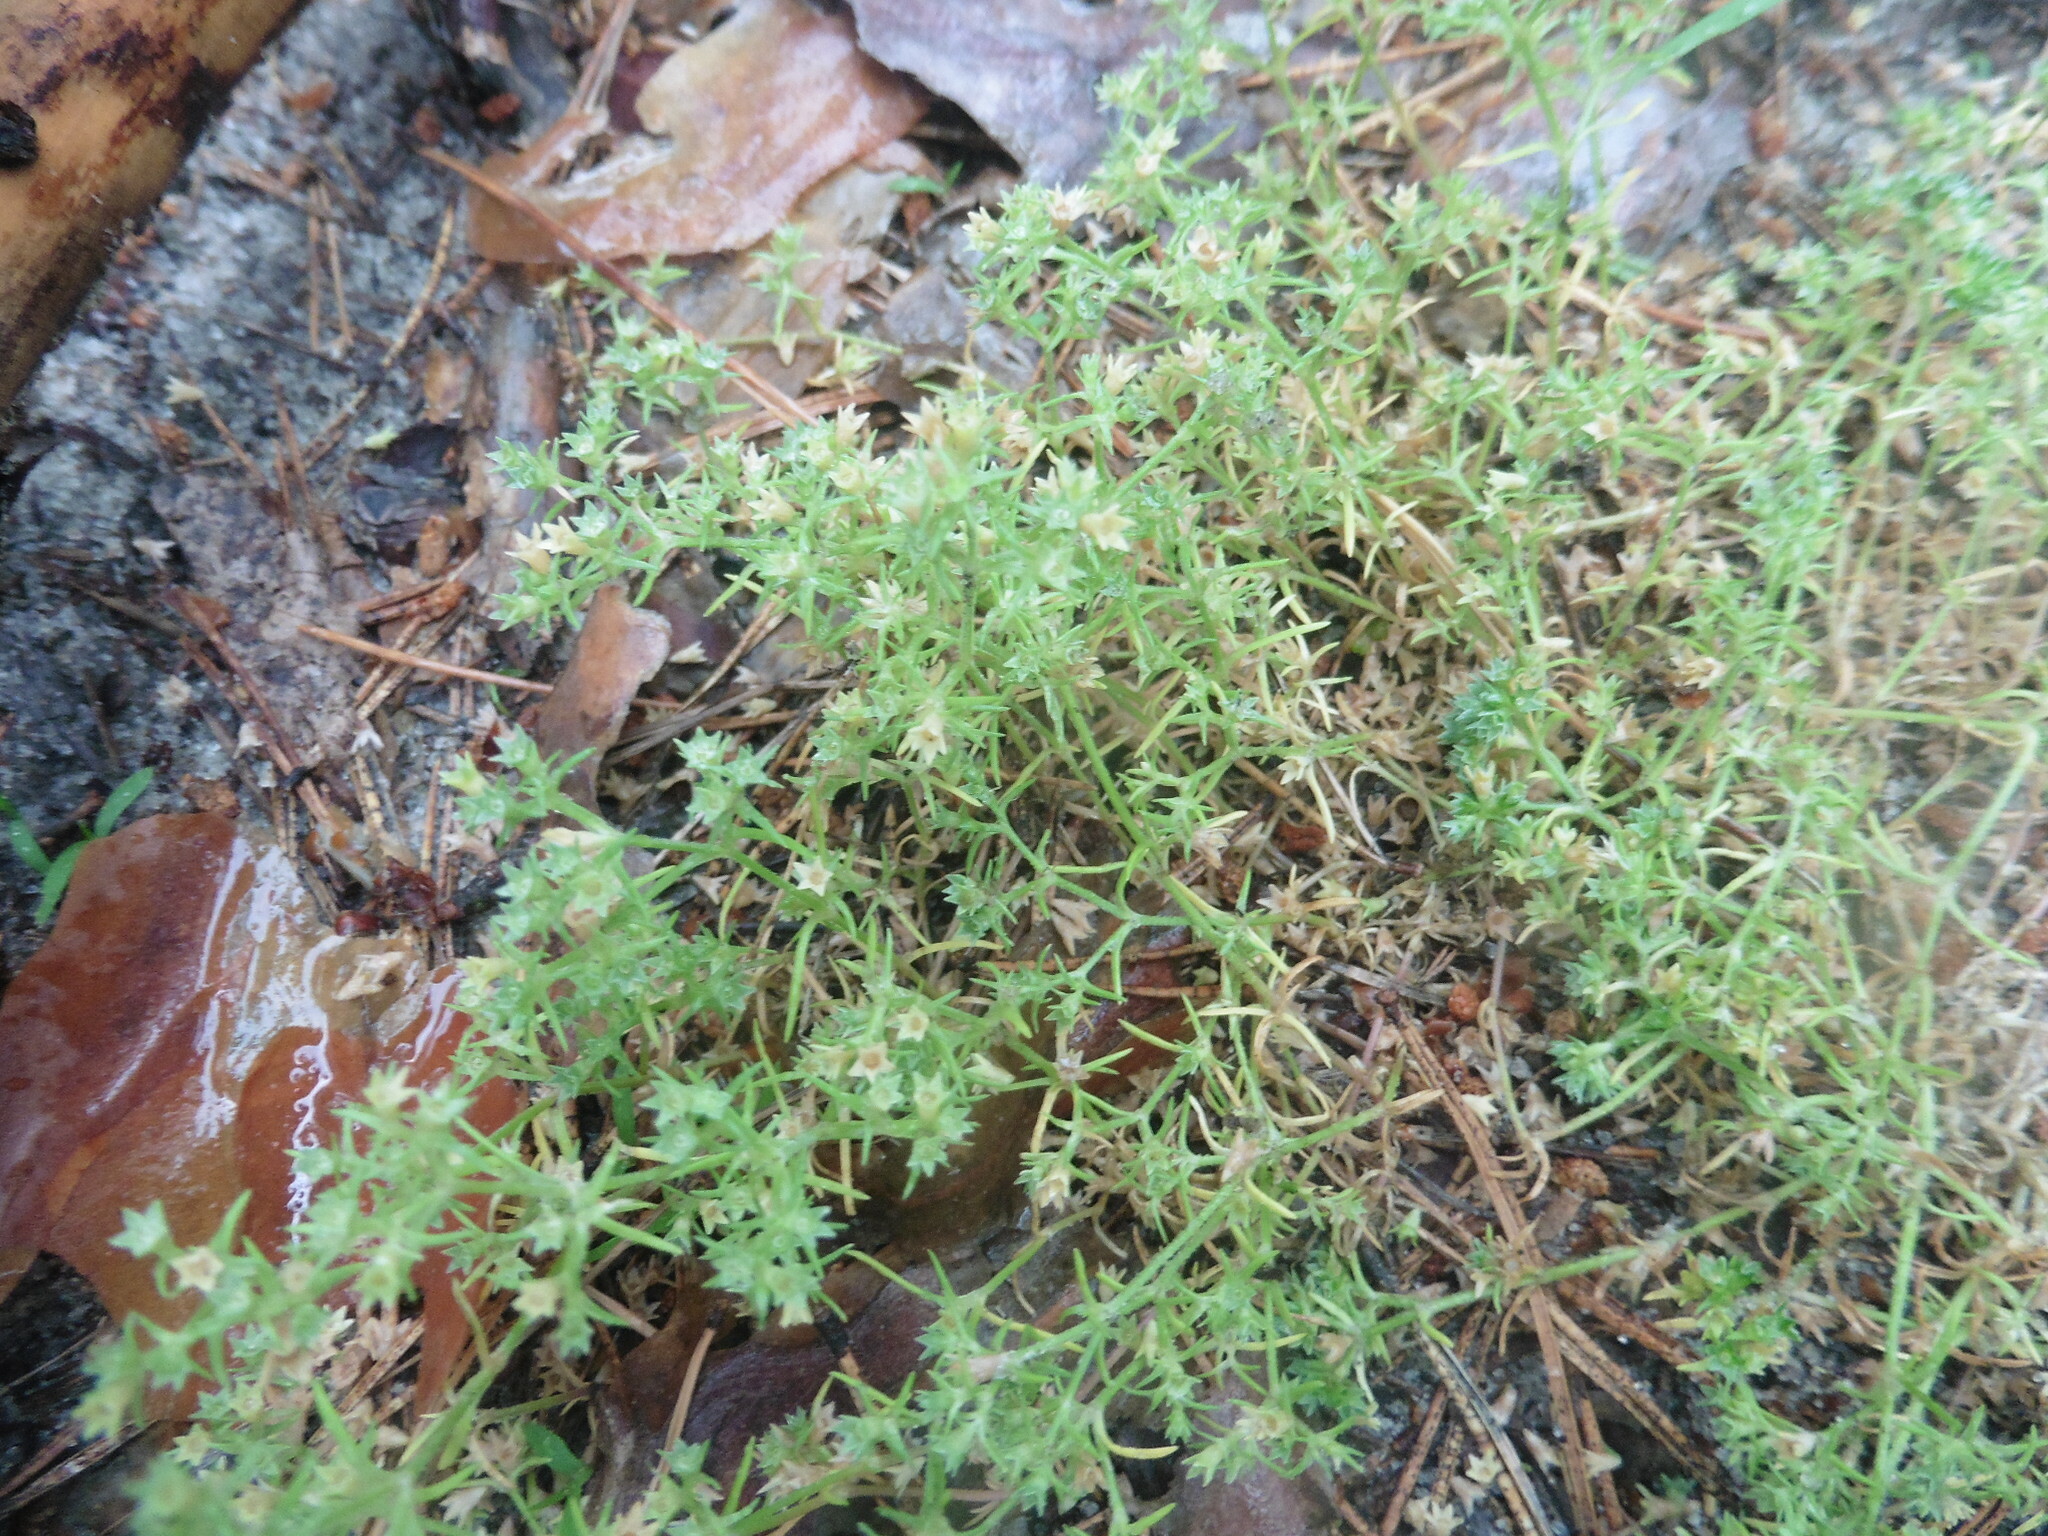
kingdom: Plantae
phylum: Tracheophyta
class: Magnoliopsida
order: Caryophyllales
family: Caryophyllaceae
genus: Scleranthus
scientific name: Scleranthus annuus
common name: Annual knawel
